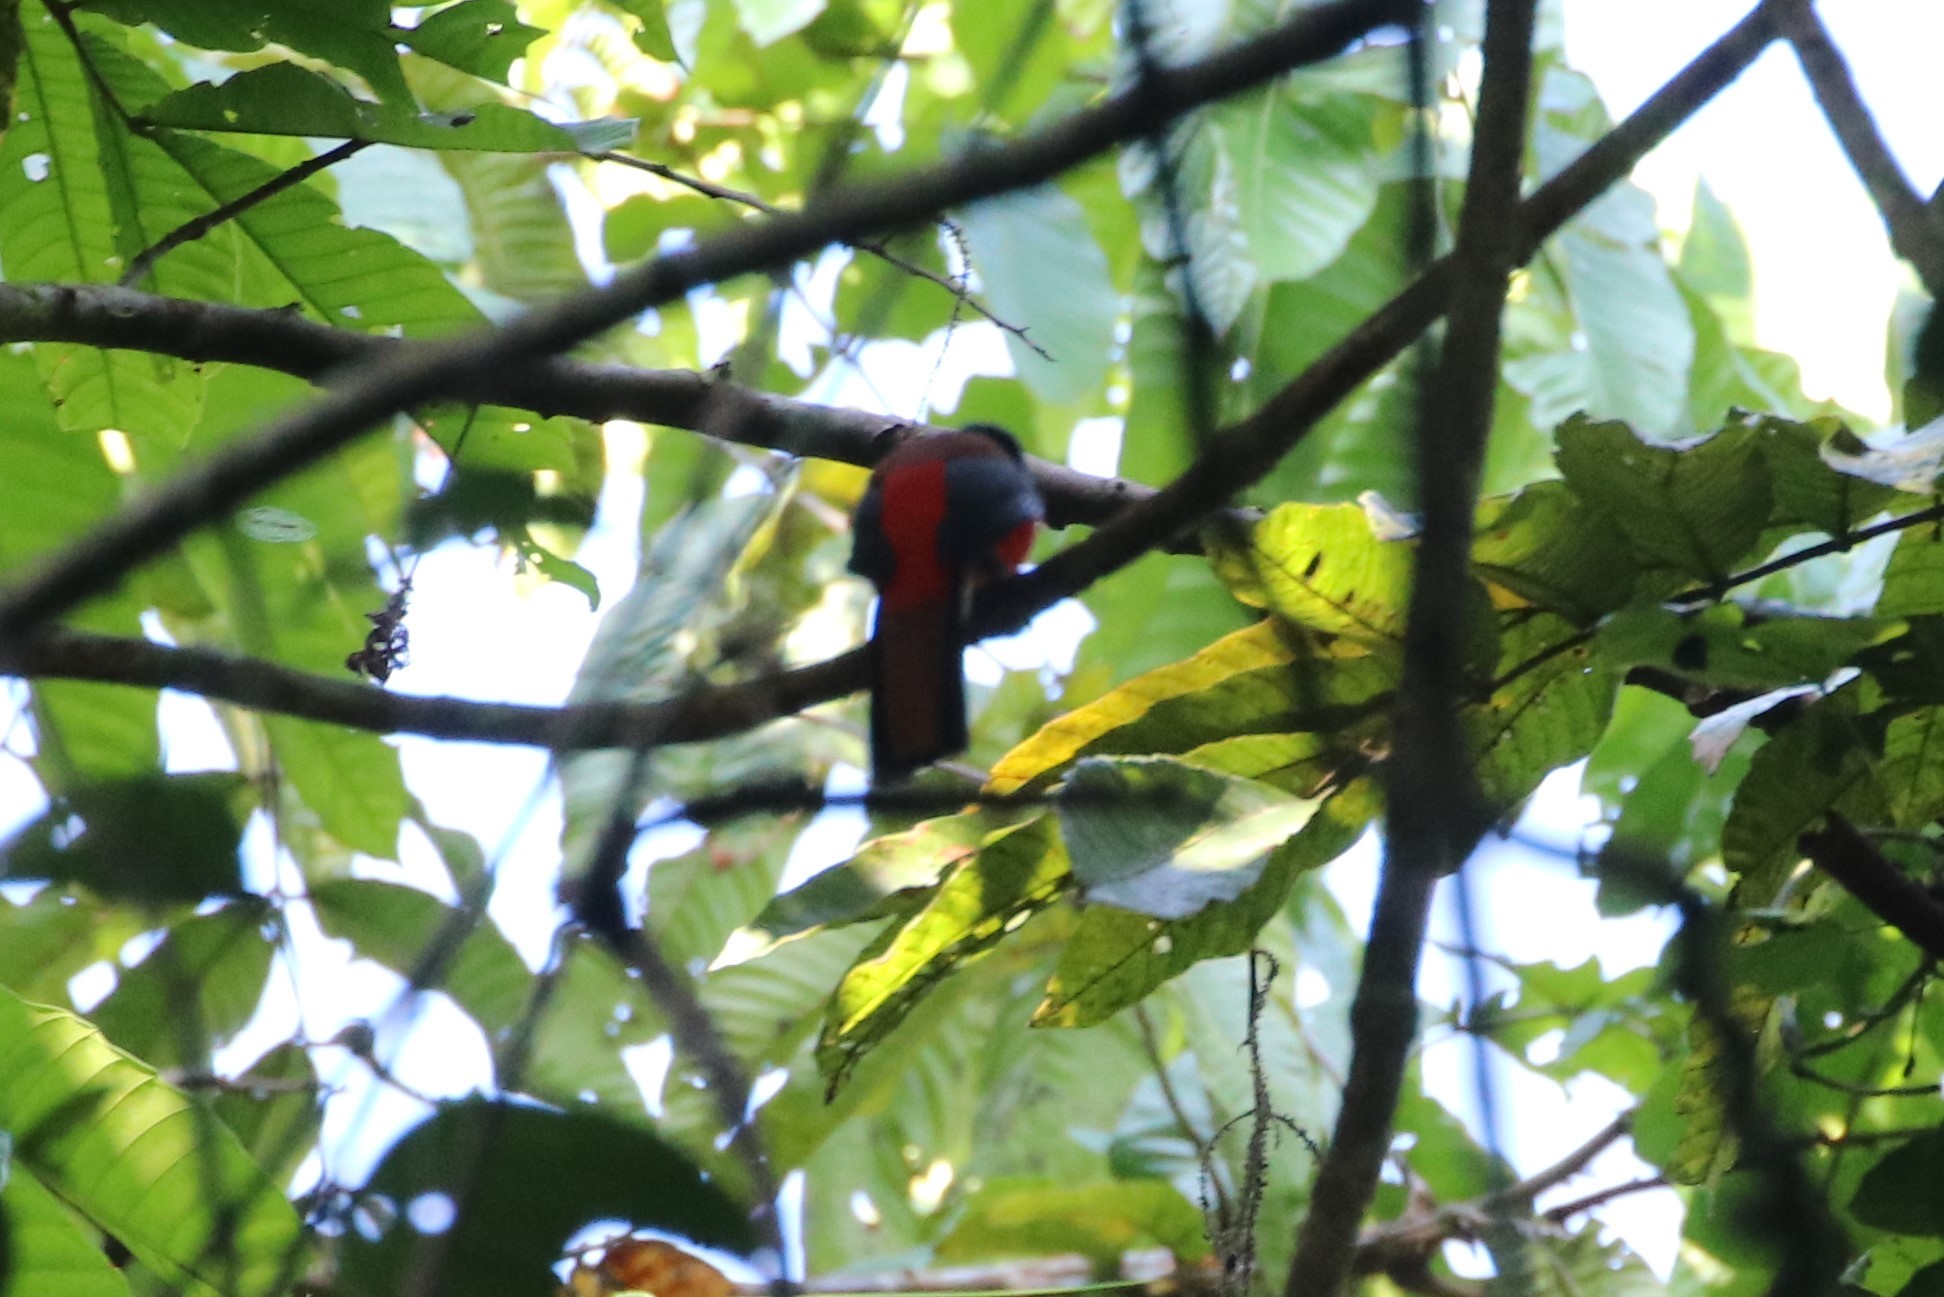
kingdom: Animalia
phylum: Chordata
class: Aves
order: Trogoniformes
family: Trogonidae
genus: Harpactes
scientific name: Harpactes duvaucelii
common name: Scarlet-rumped trogon
